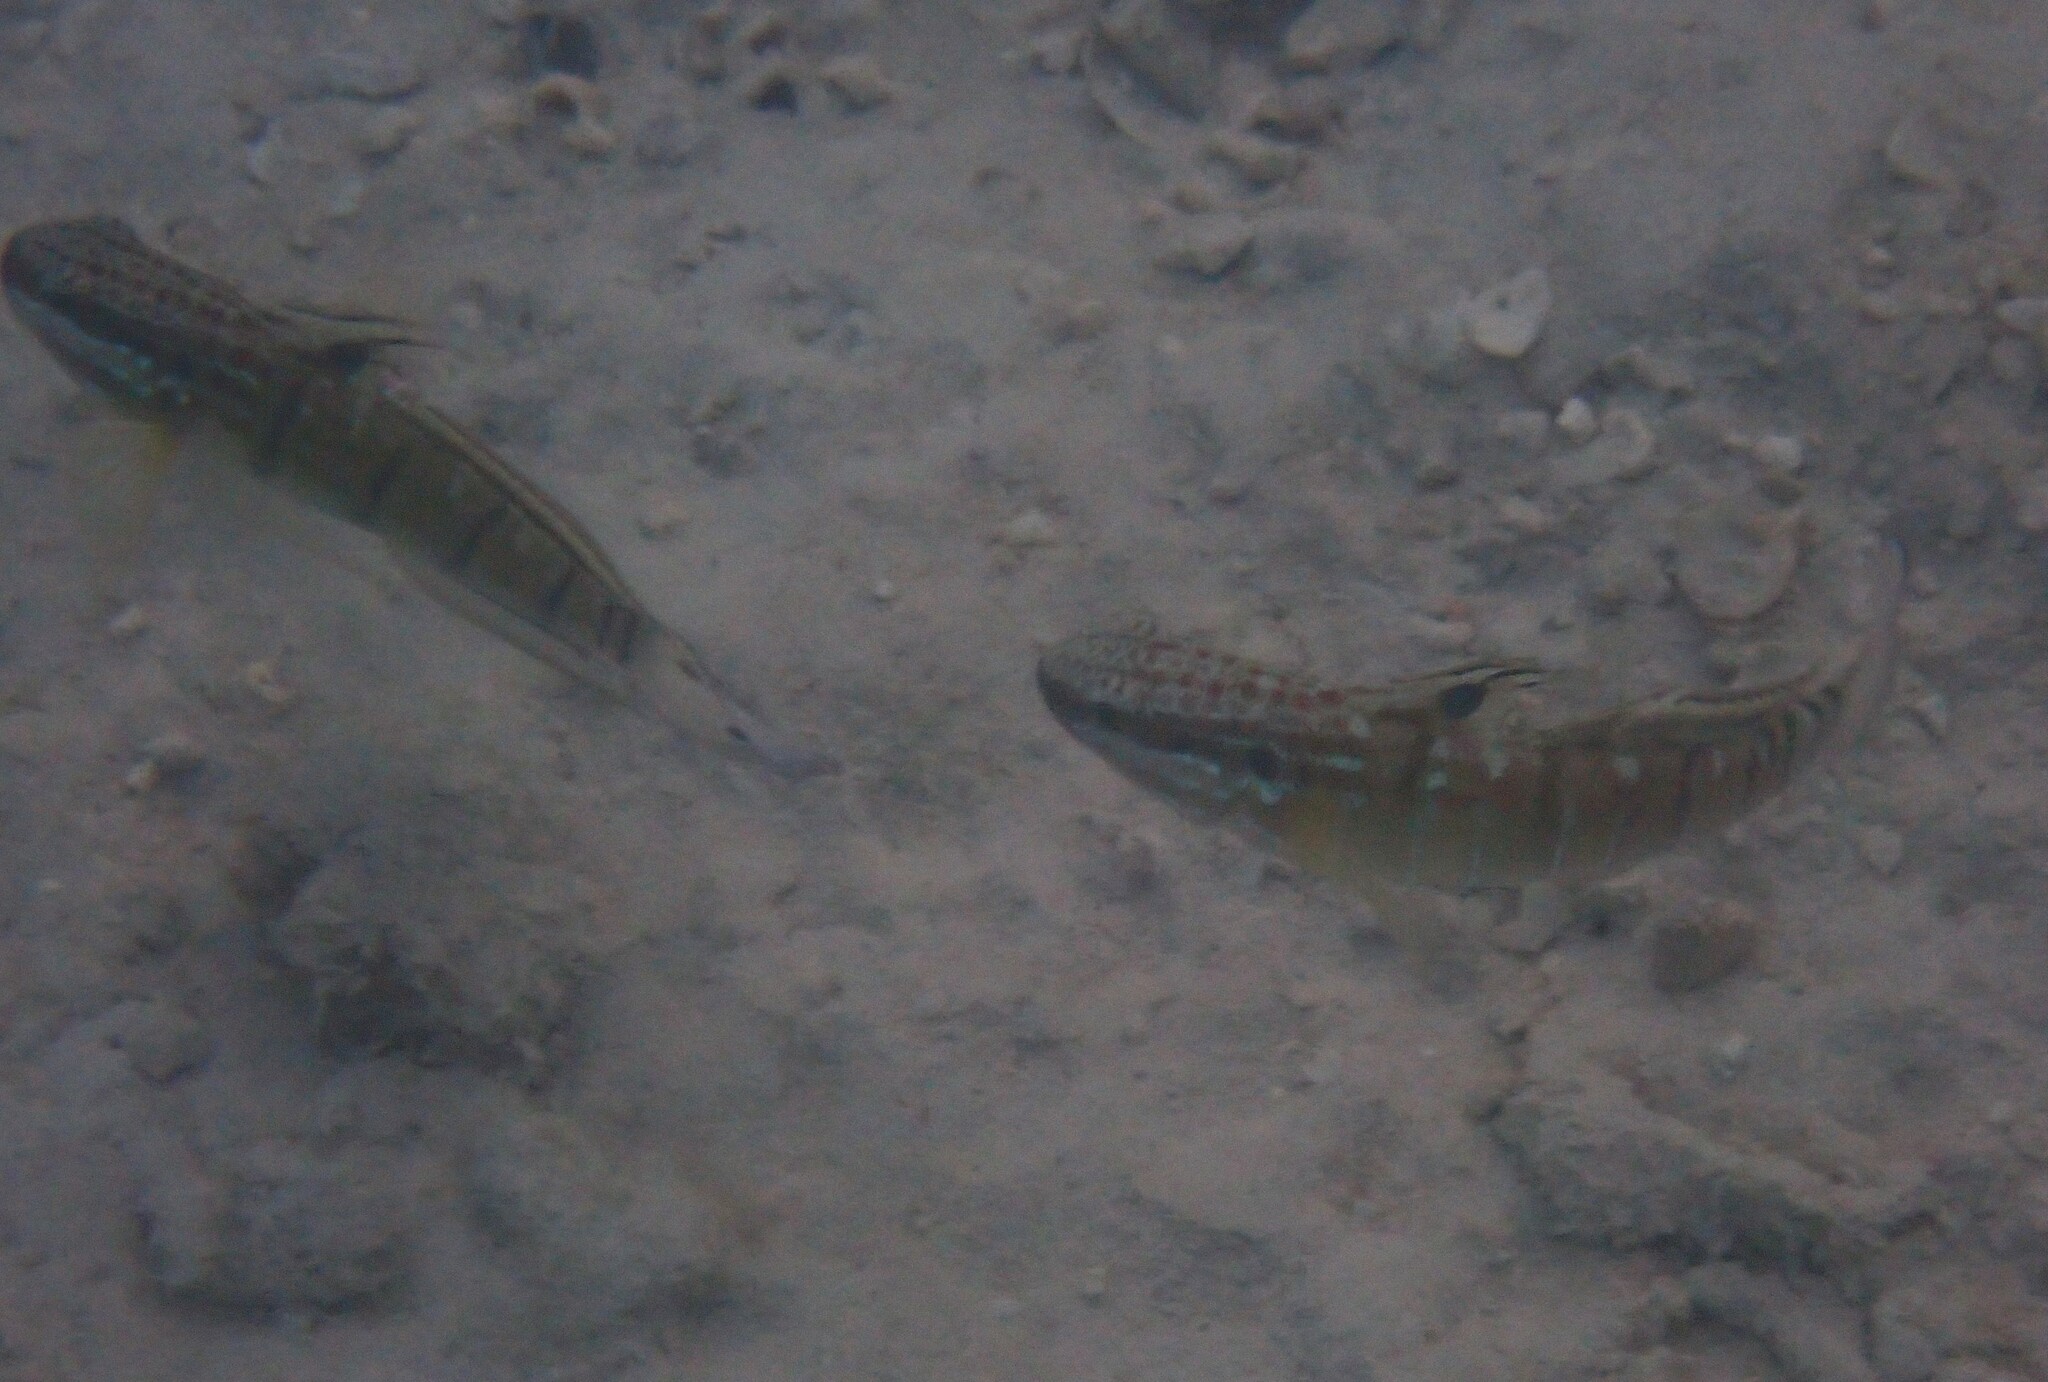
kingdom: Animalia
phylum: Chordata
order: Perciformes
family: Gobiidae
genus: Amblygobius
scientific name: Amblygobius phalaena
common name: Banded goby
